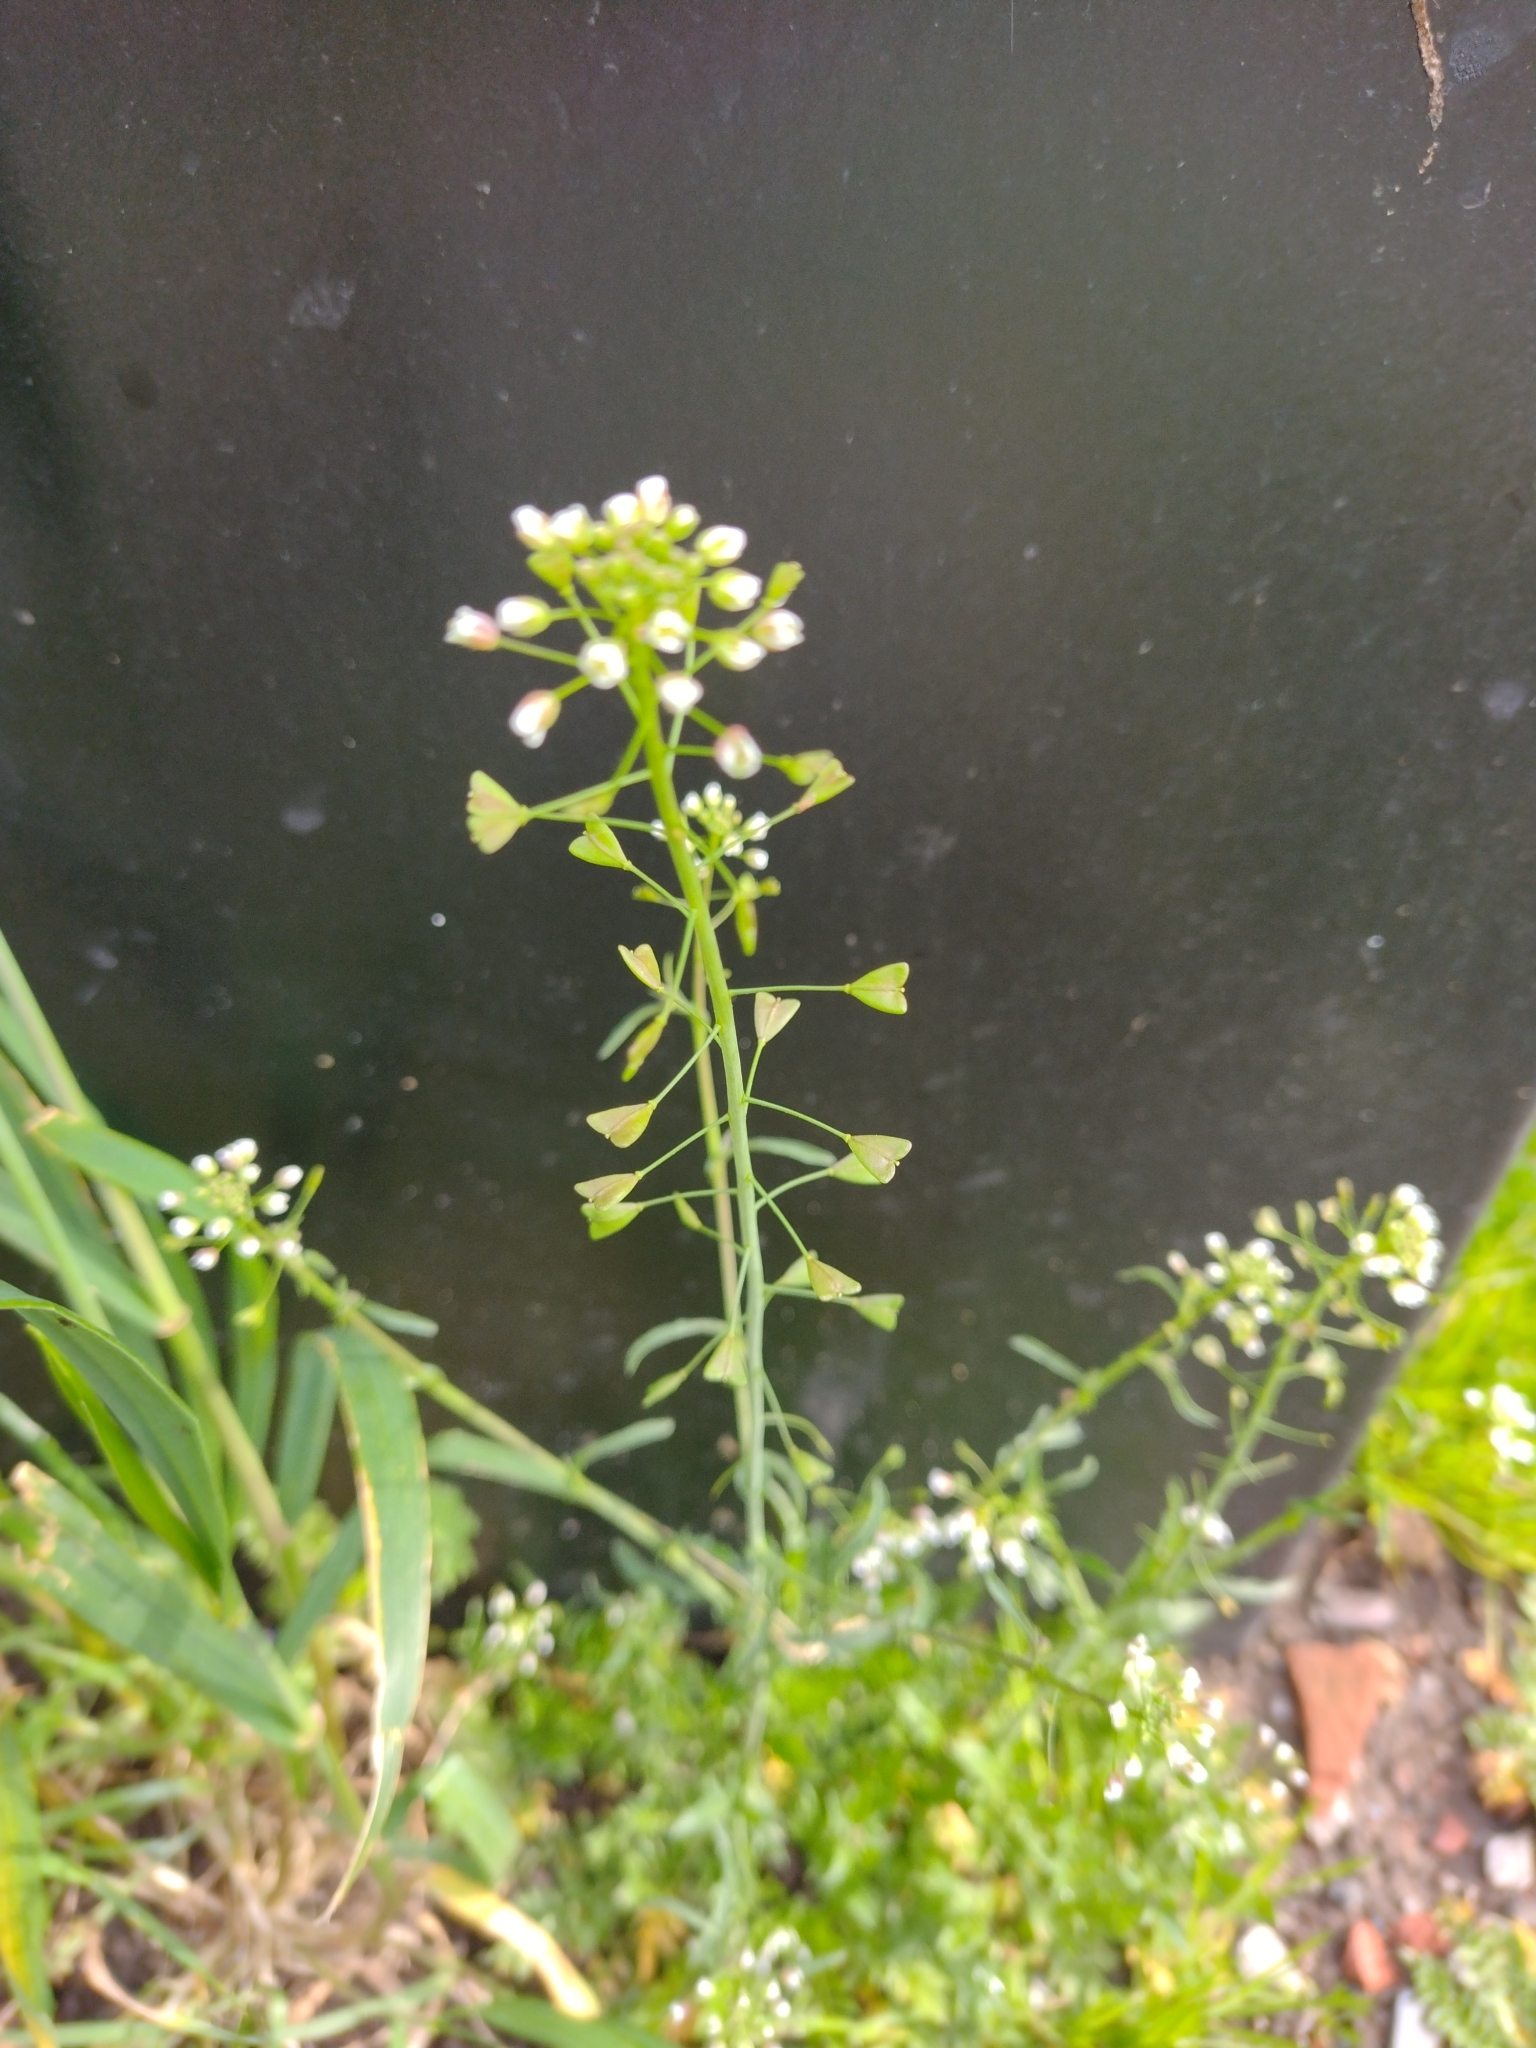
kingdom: Plantae
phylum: Tracheophyta
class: Magnoliopsida
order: Brassicales
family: Brassicaceae
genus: Capsella
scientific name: Capsella bursa-pastoris
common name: Shepherd's purse
